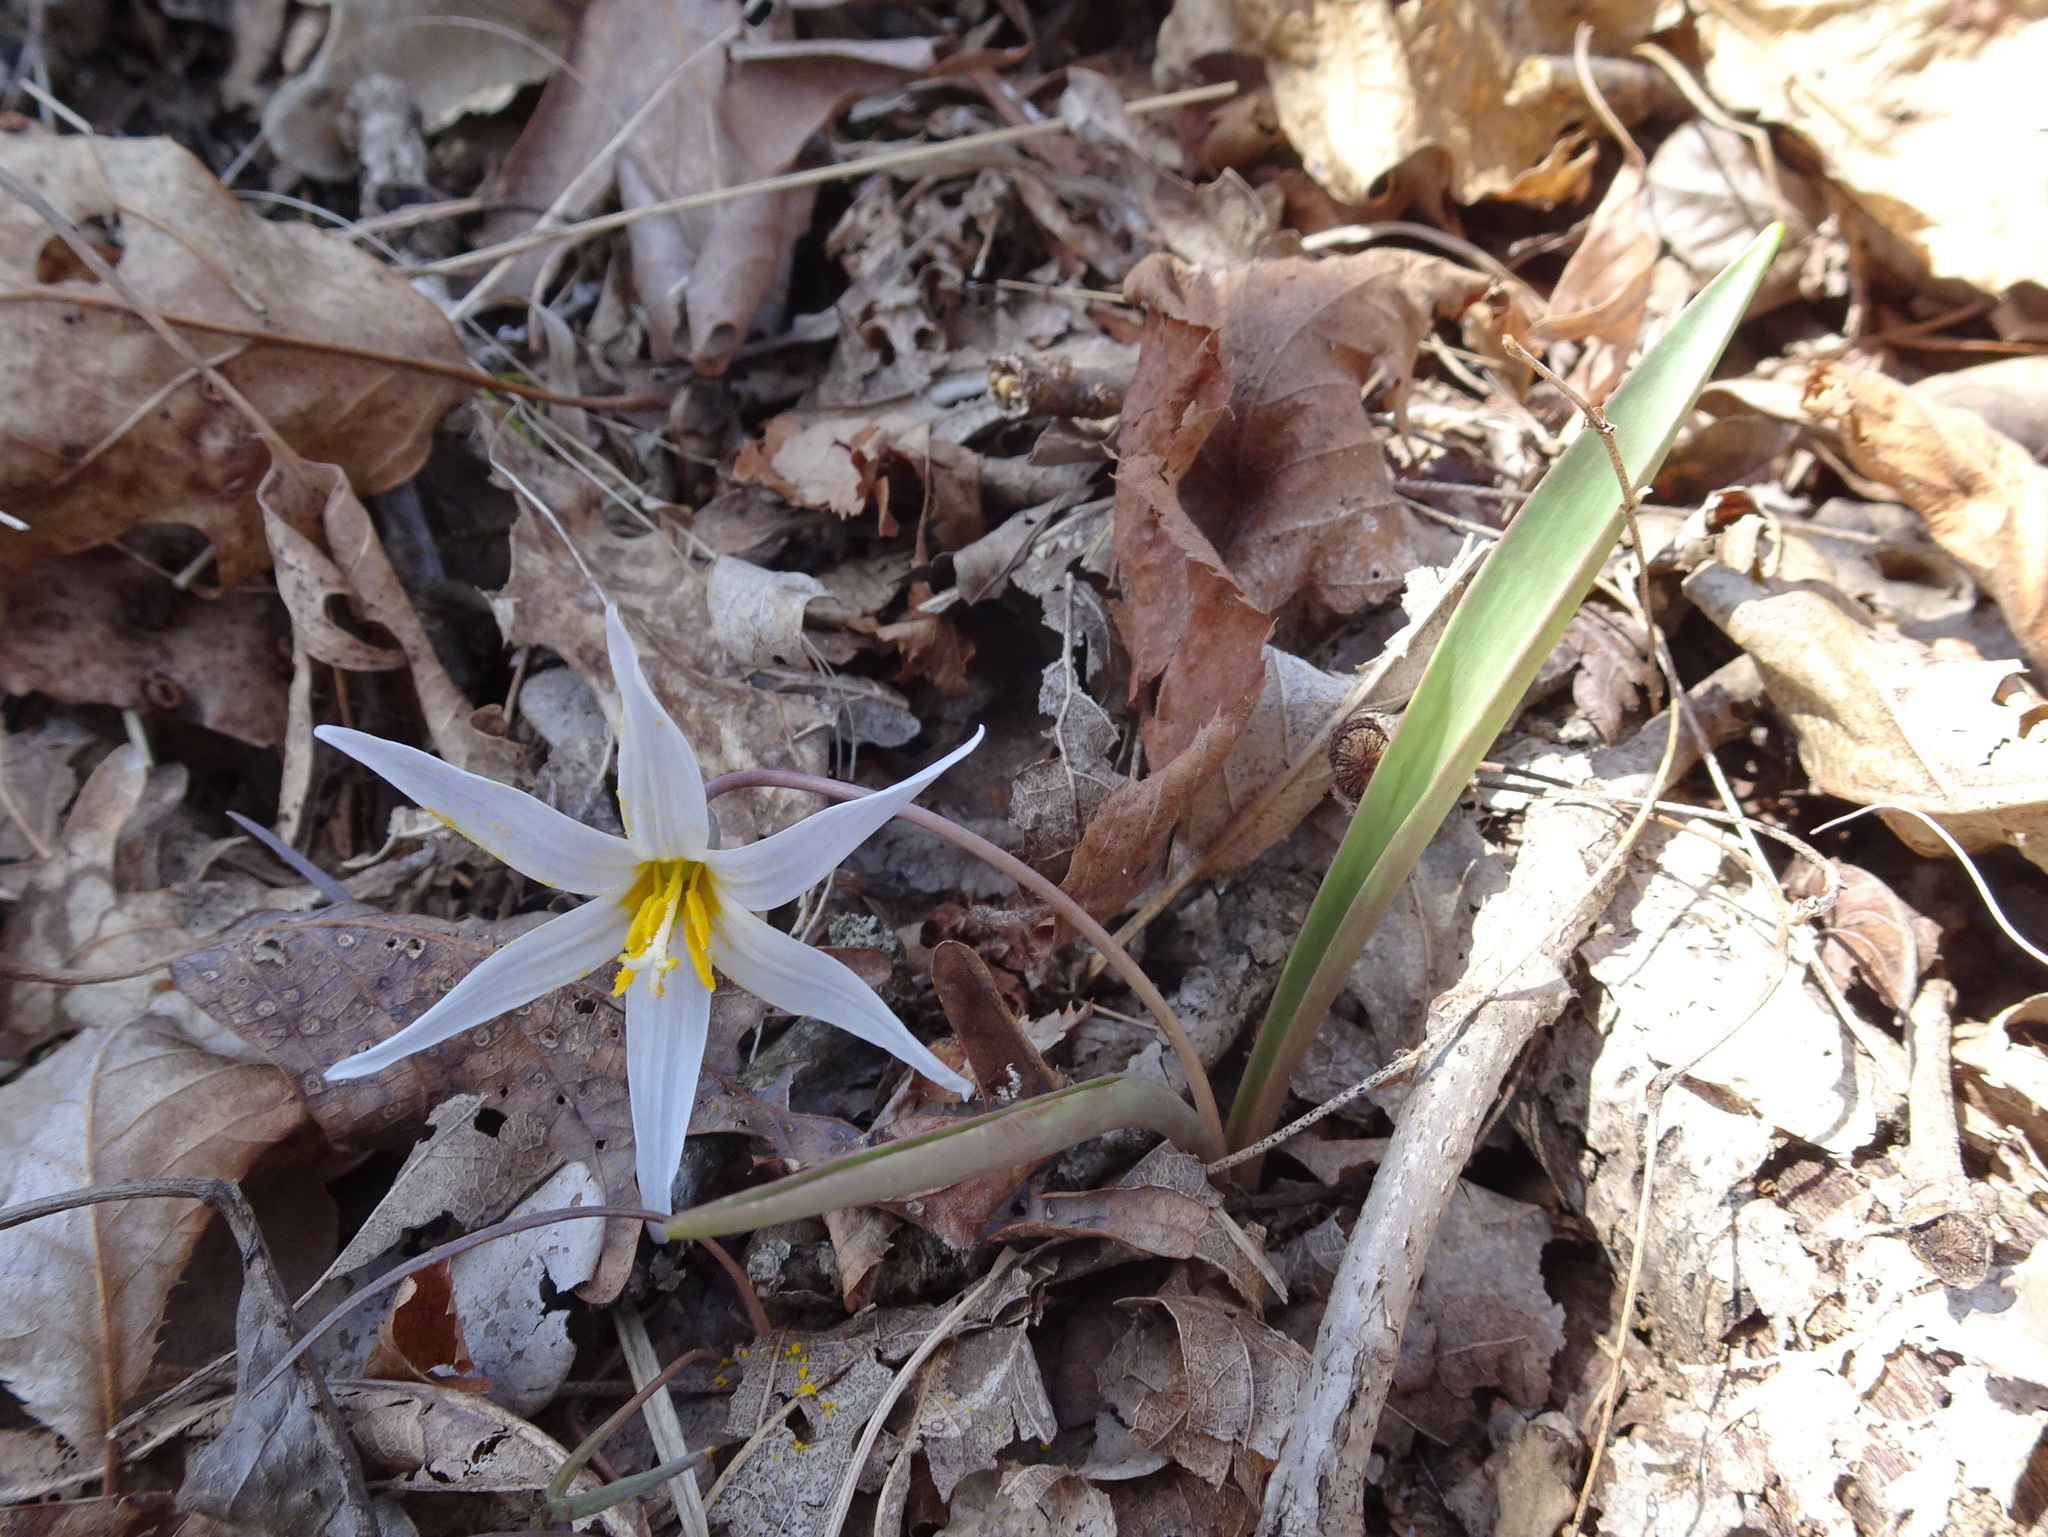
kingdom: Plantae
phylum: Tracheophyta
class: Liliopsida
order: Liliales
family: Liliaceae
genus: Erythronium
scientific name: Erythronium mesochoreum
